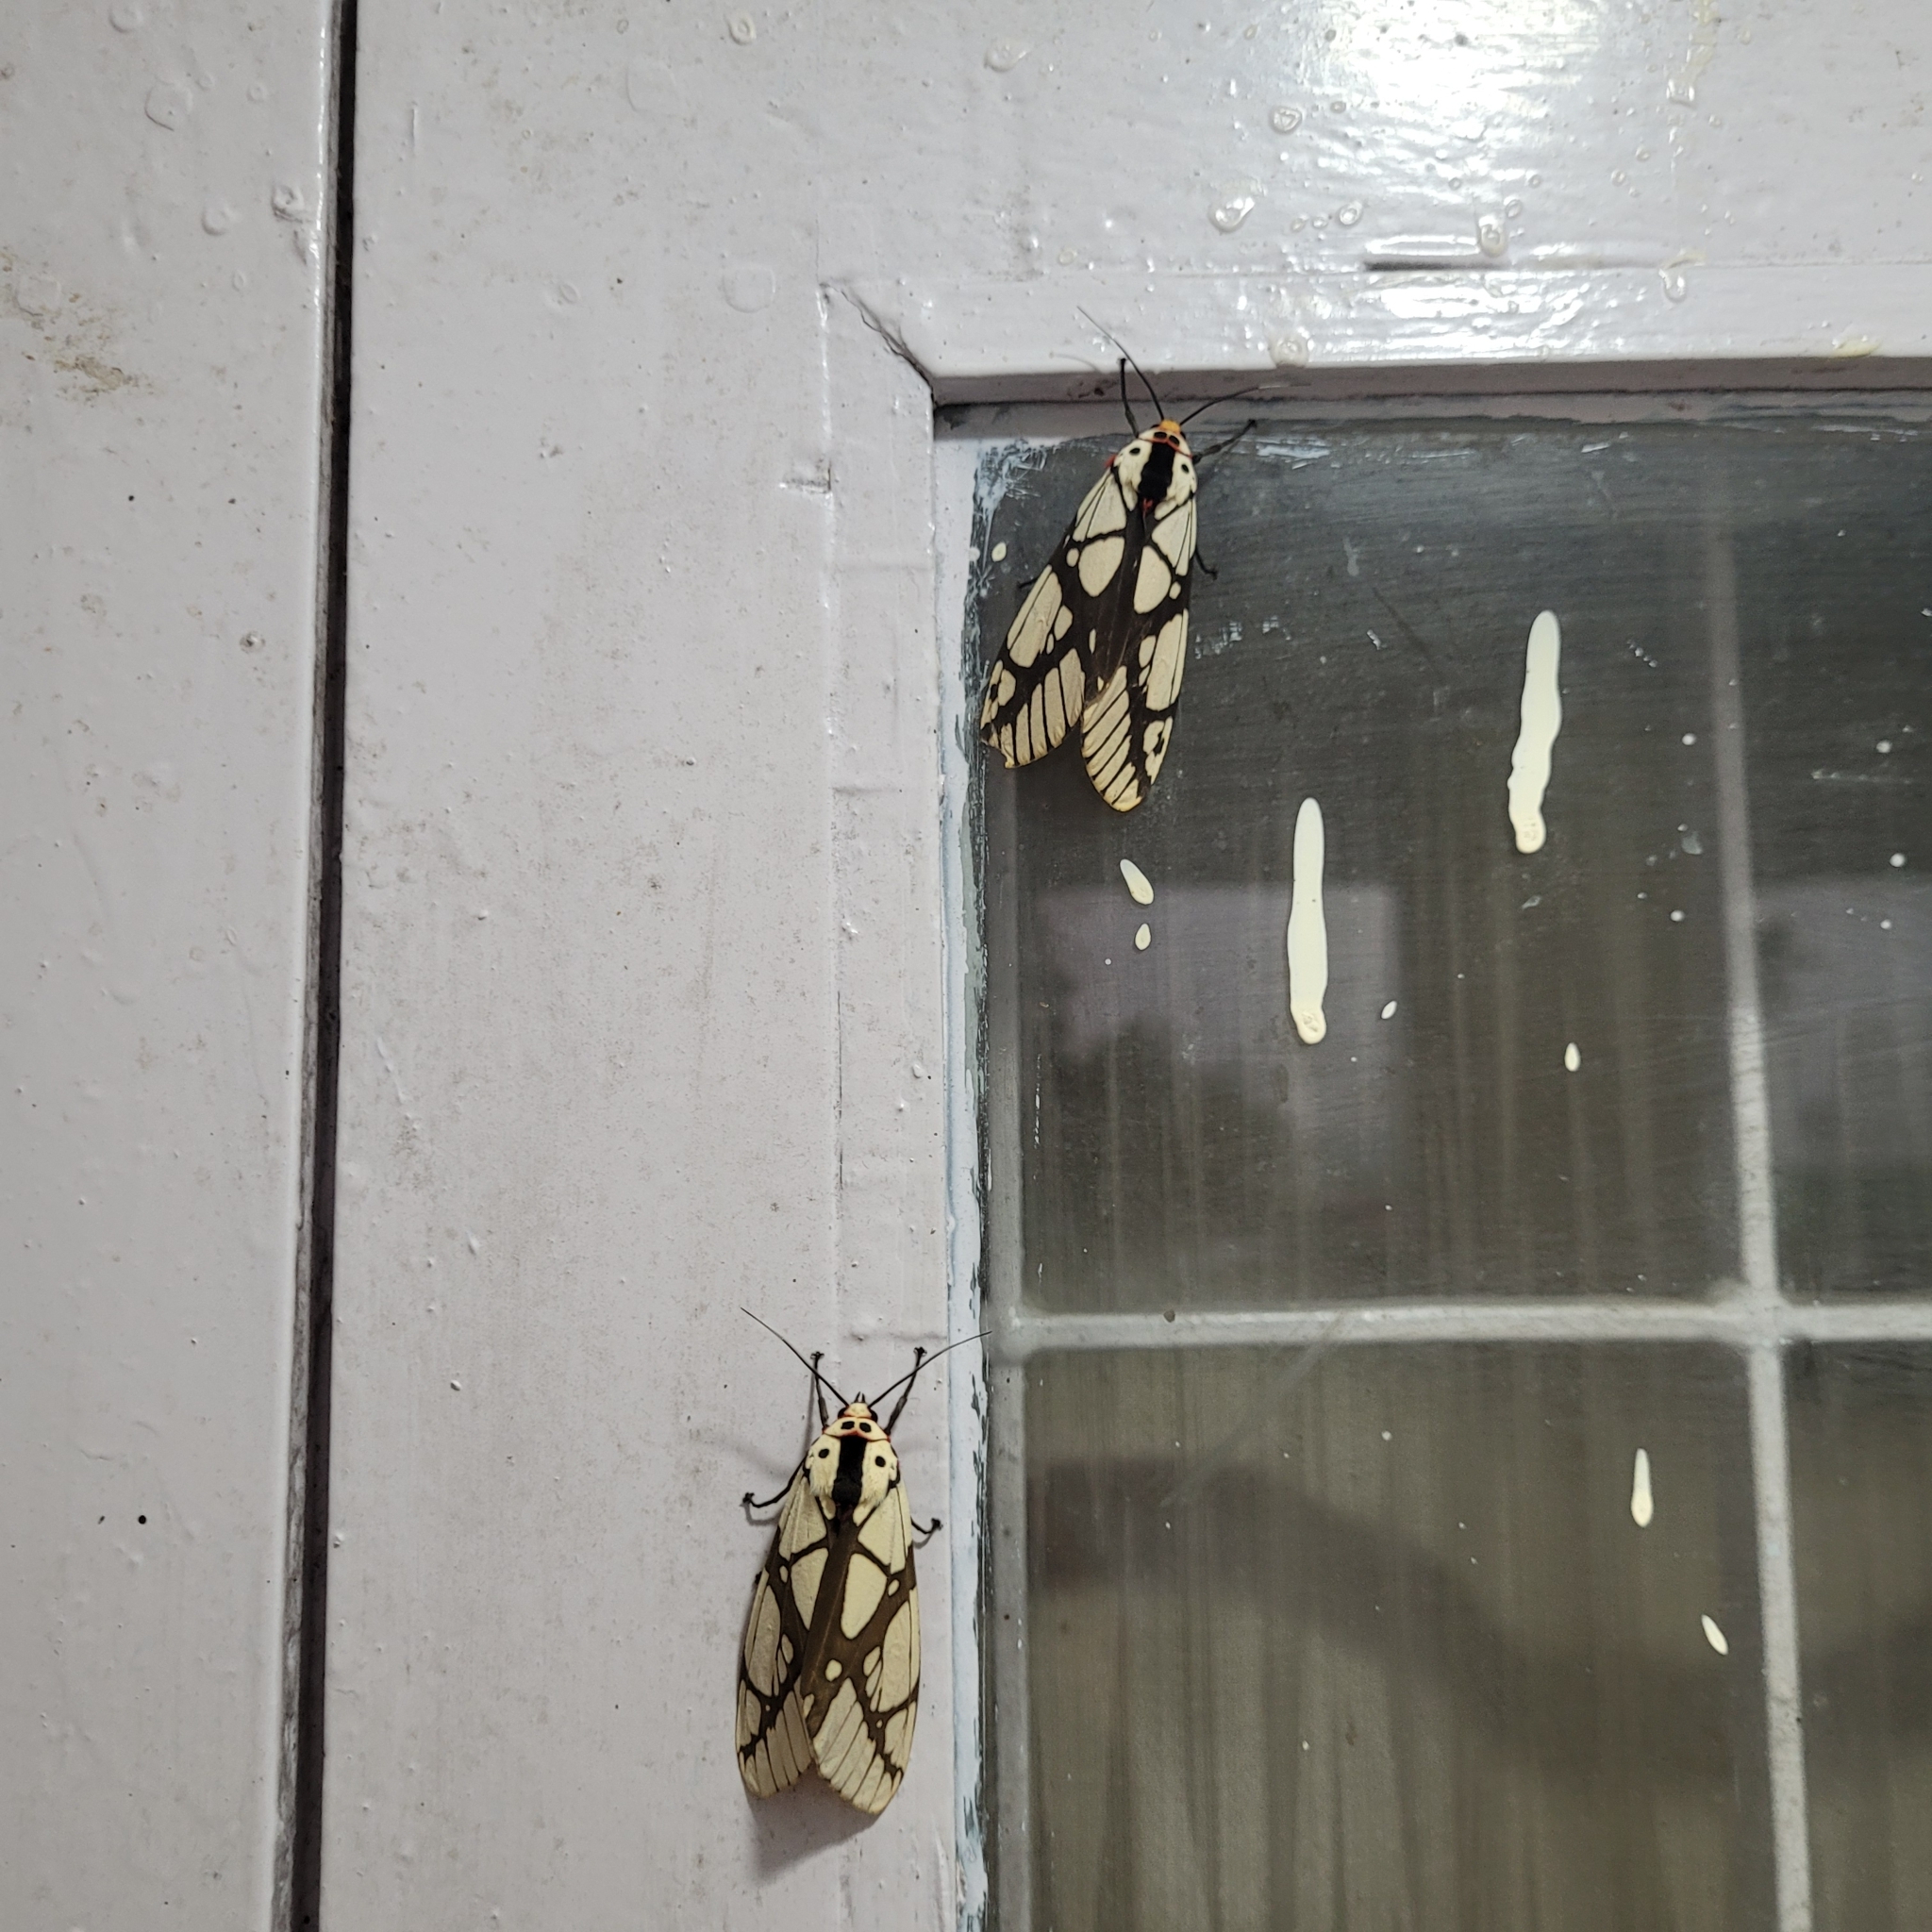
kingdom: Animalia
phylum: Arthropoda
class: Insecta
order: Lepidoptera
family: Erebidae
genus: Areas
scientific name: Areas galactina
